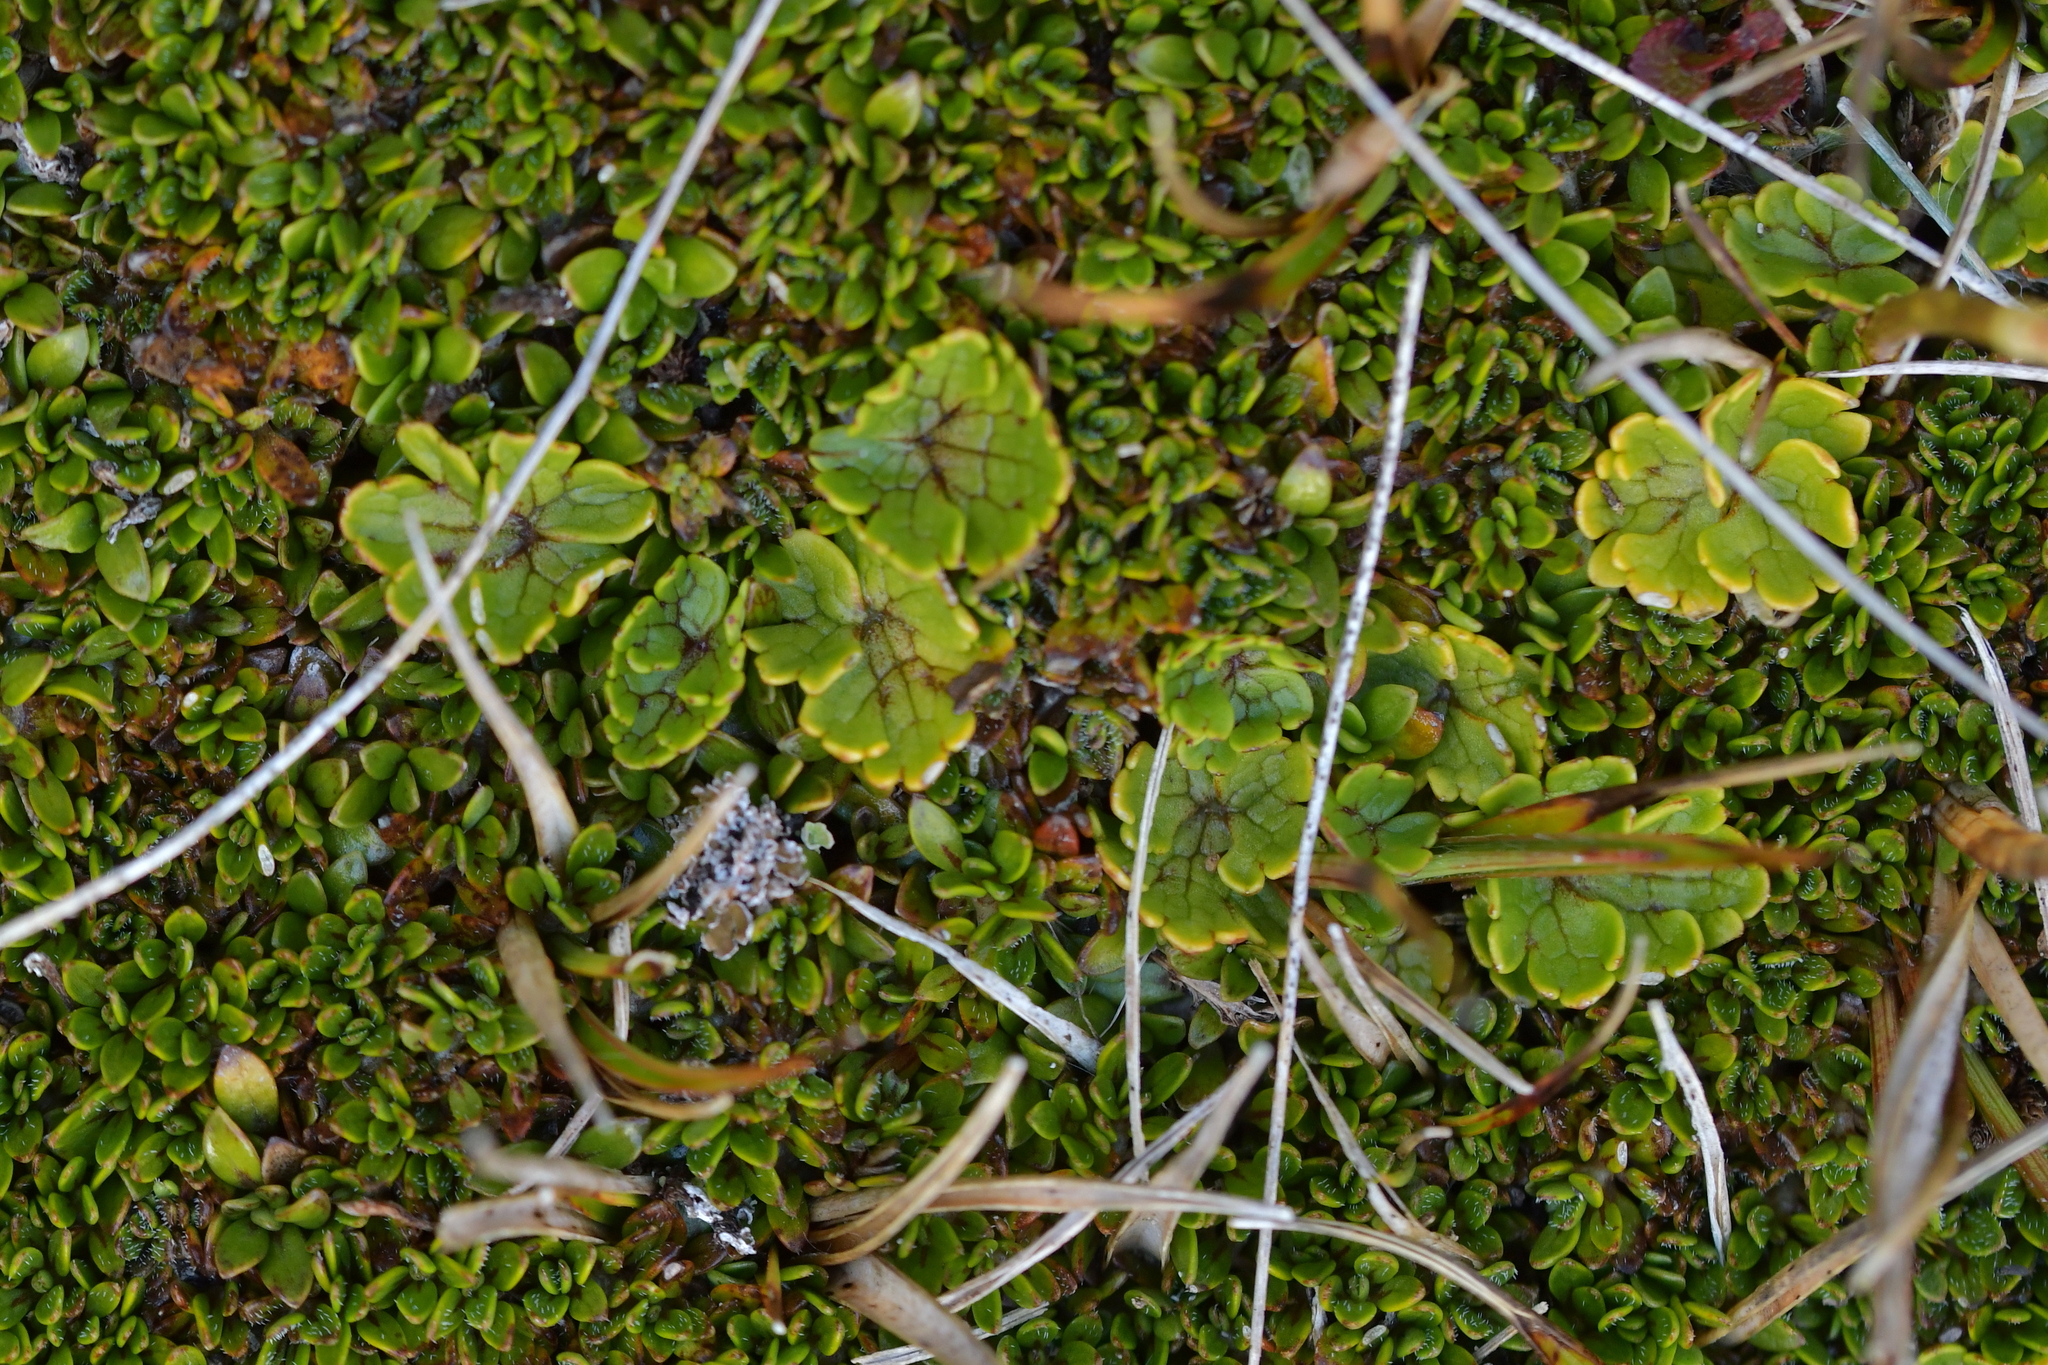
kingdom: Plantae
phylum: Tracheophyta
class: Magnoliopsida
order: Ranunculales
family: Ranunculaceae
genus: Ranunculus
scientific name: Ranunculus enysii
